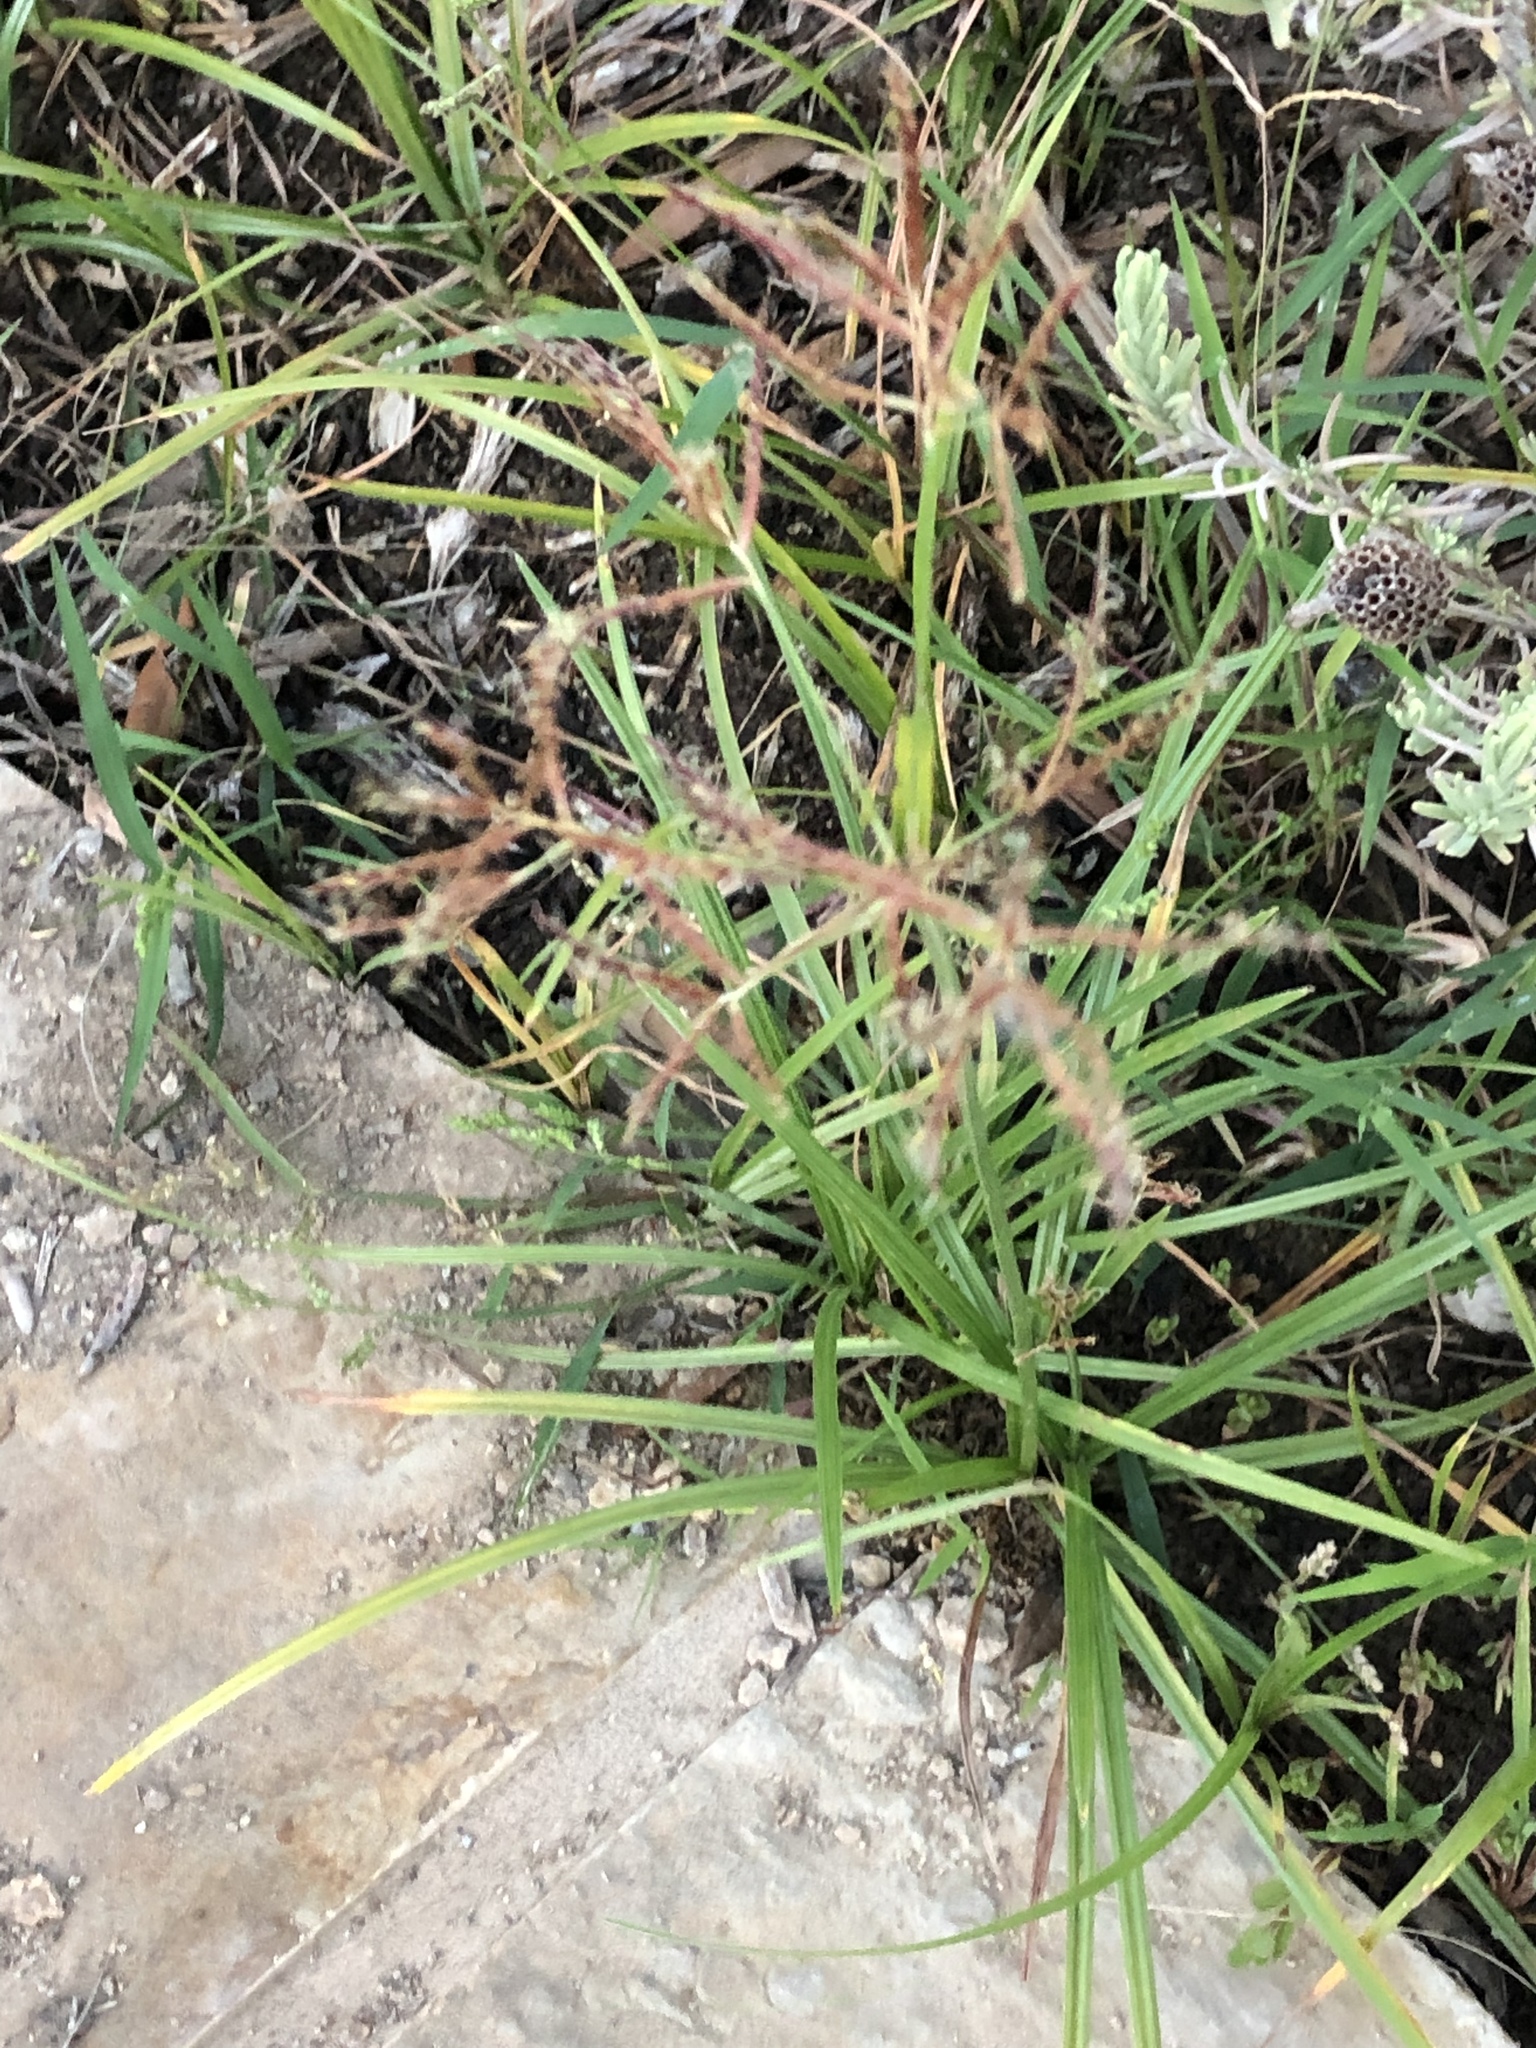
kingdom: Plantae
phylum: Tracheophyta
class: Liliopsida
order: Poales
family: Cyperaceae
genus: Cyperus
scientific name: Cyperus rotundus
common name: Nutgrass
